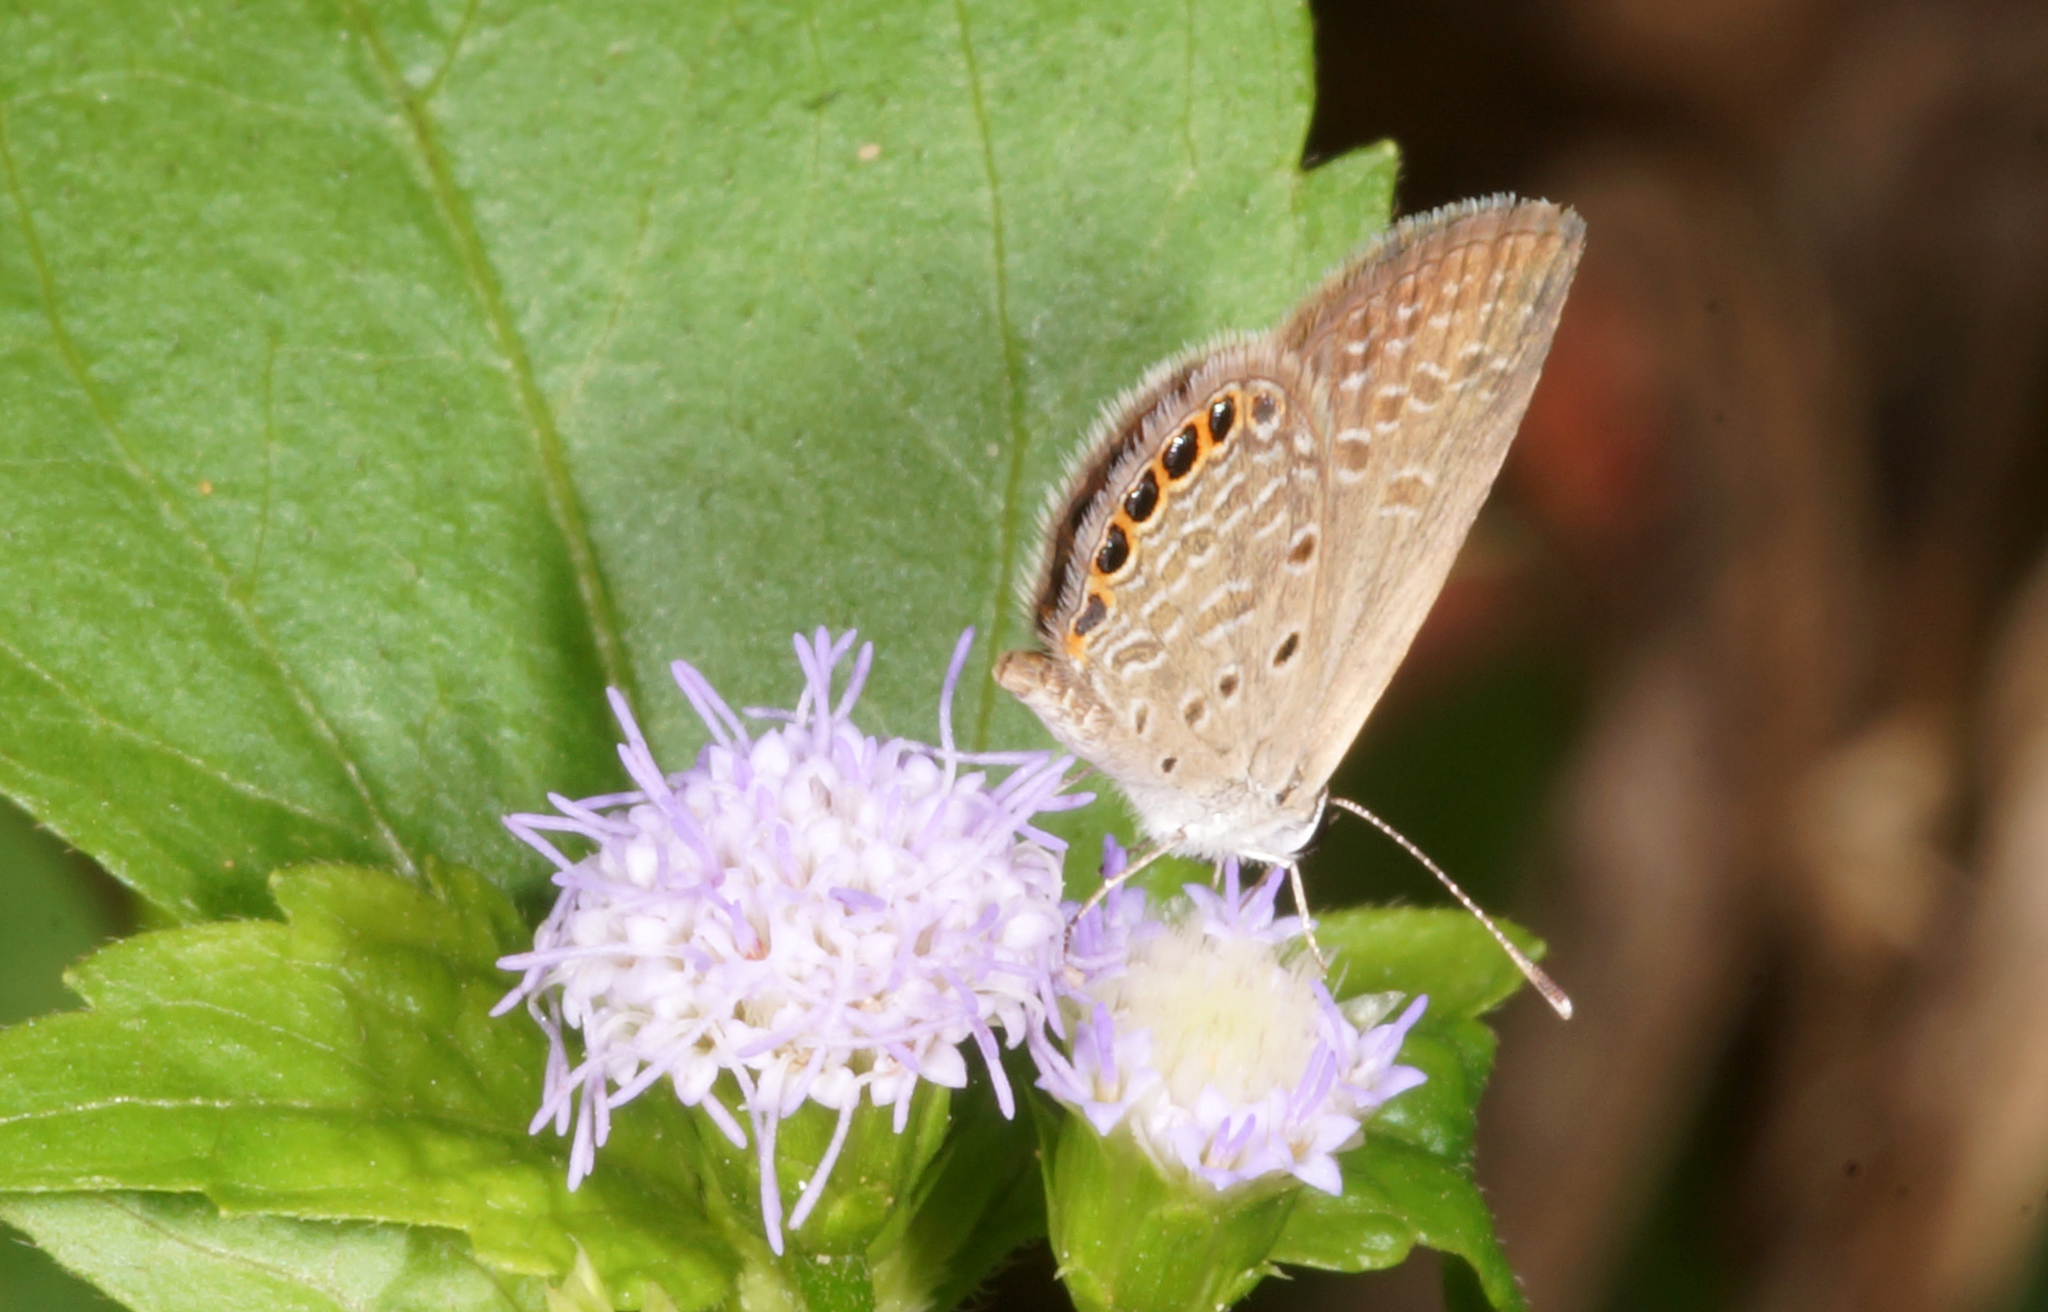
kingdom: Animalia
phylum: Arthropoda
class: Insecta
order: Lepidoptera
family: Lycaenidae
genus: Freyeria
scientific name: Freyeria putli
